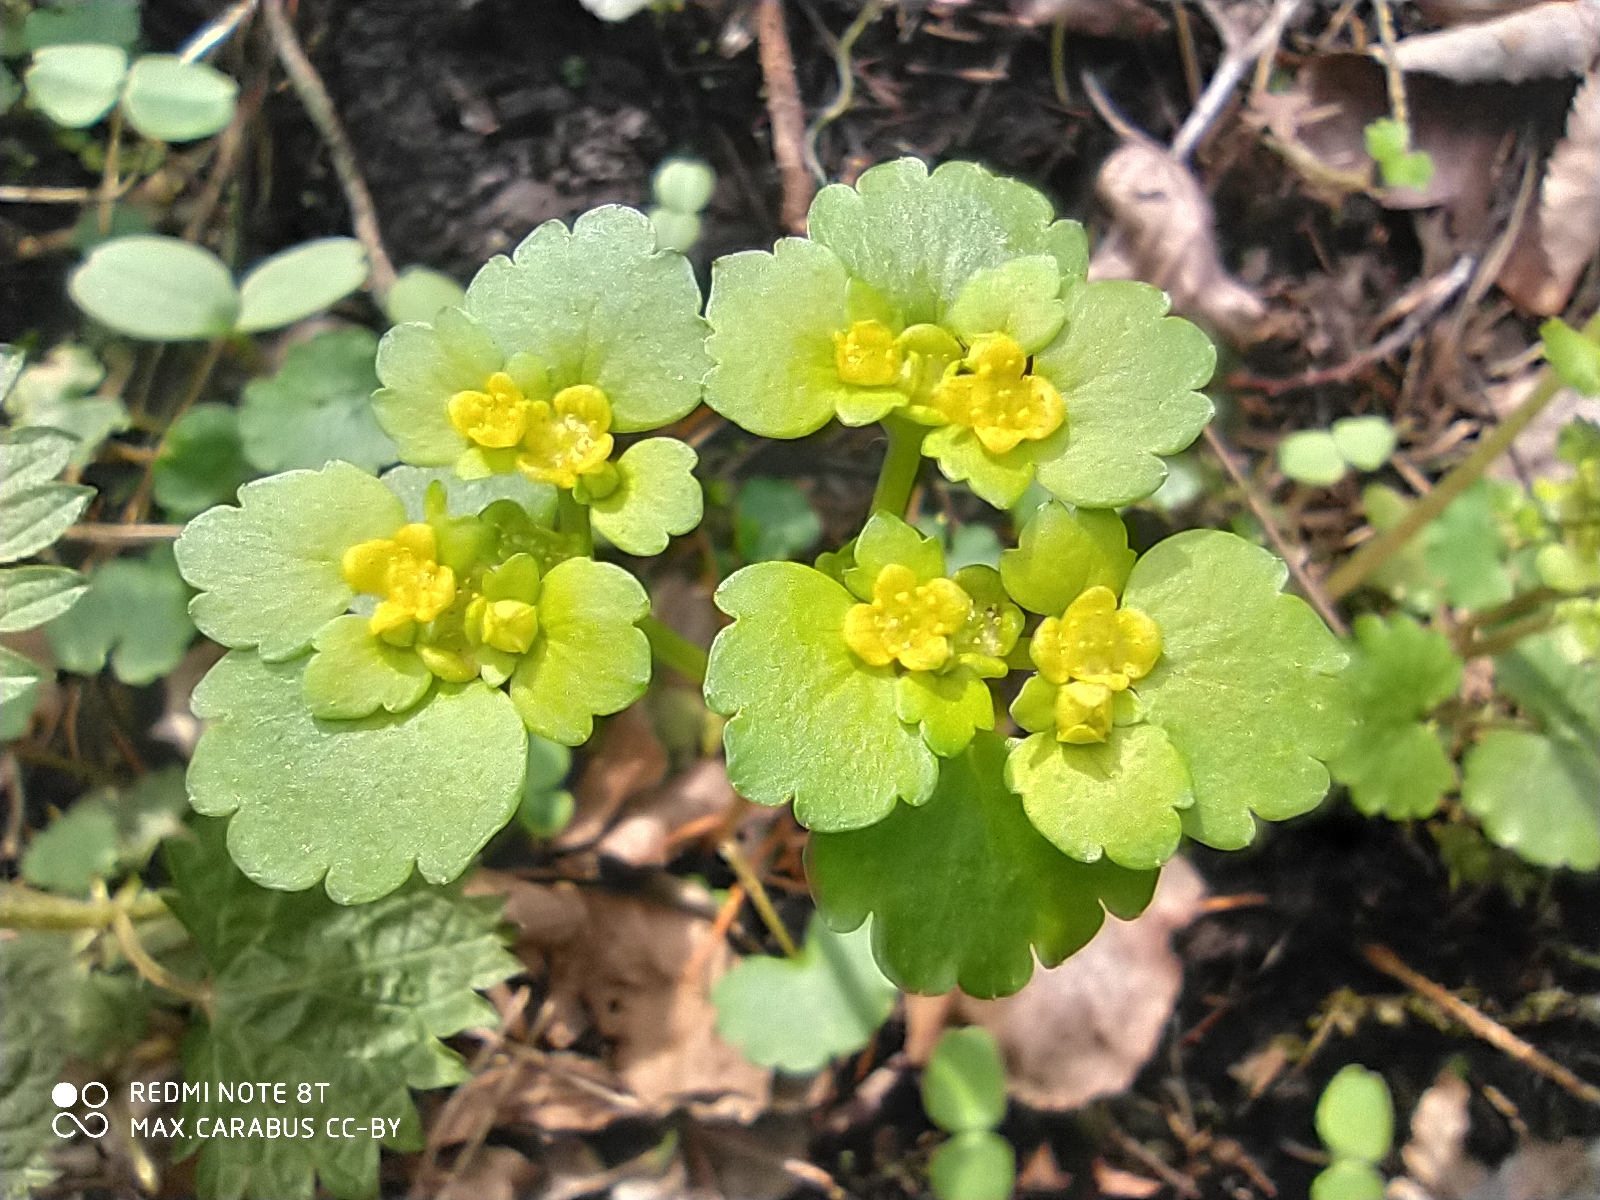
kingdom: Plantae
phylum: Tracheophyta
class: Magnoliopsida
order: Saxifragales
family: Saxifragaceae
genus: Chrysosplenium
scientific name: Chrysosplenium alternifolium
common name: Alternate-leaved golden-saxifrage
